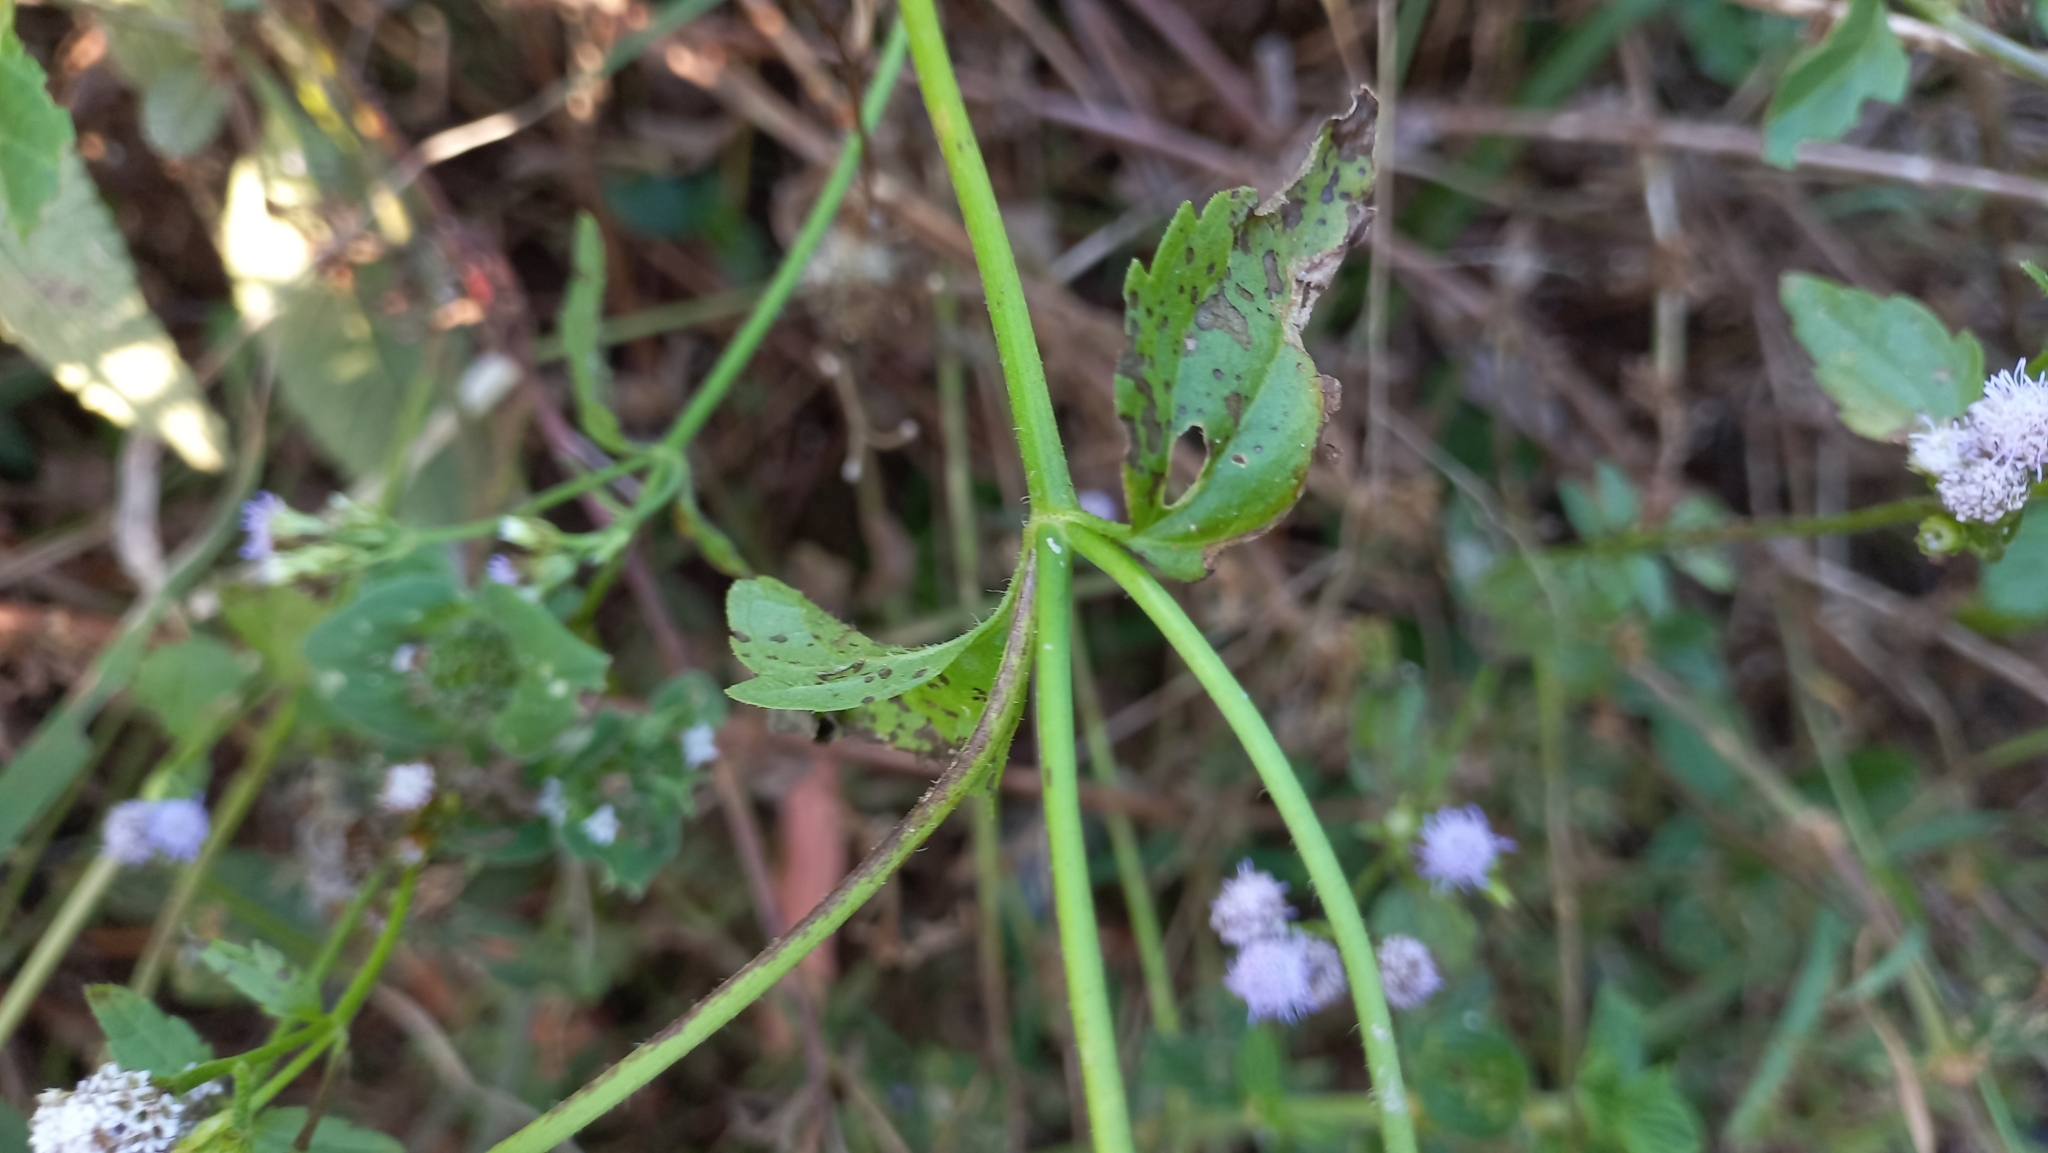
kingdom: Plantae
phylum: Tracheophyta
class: Magnoliopsida
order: Asterales
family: Asteraceae
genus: Praxelis
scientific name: Praxelis clematidea
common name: Praxelis
